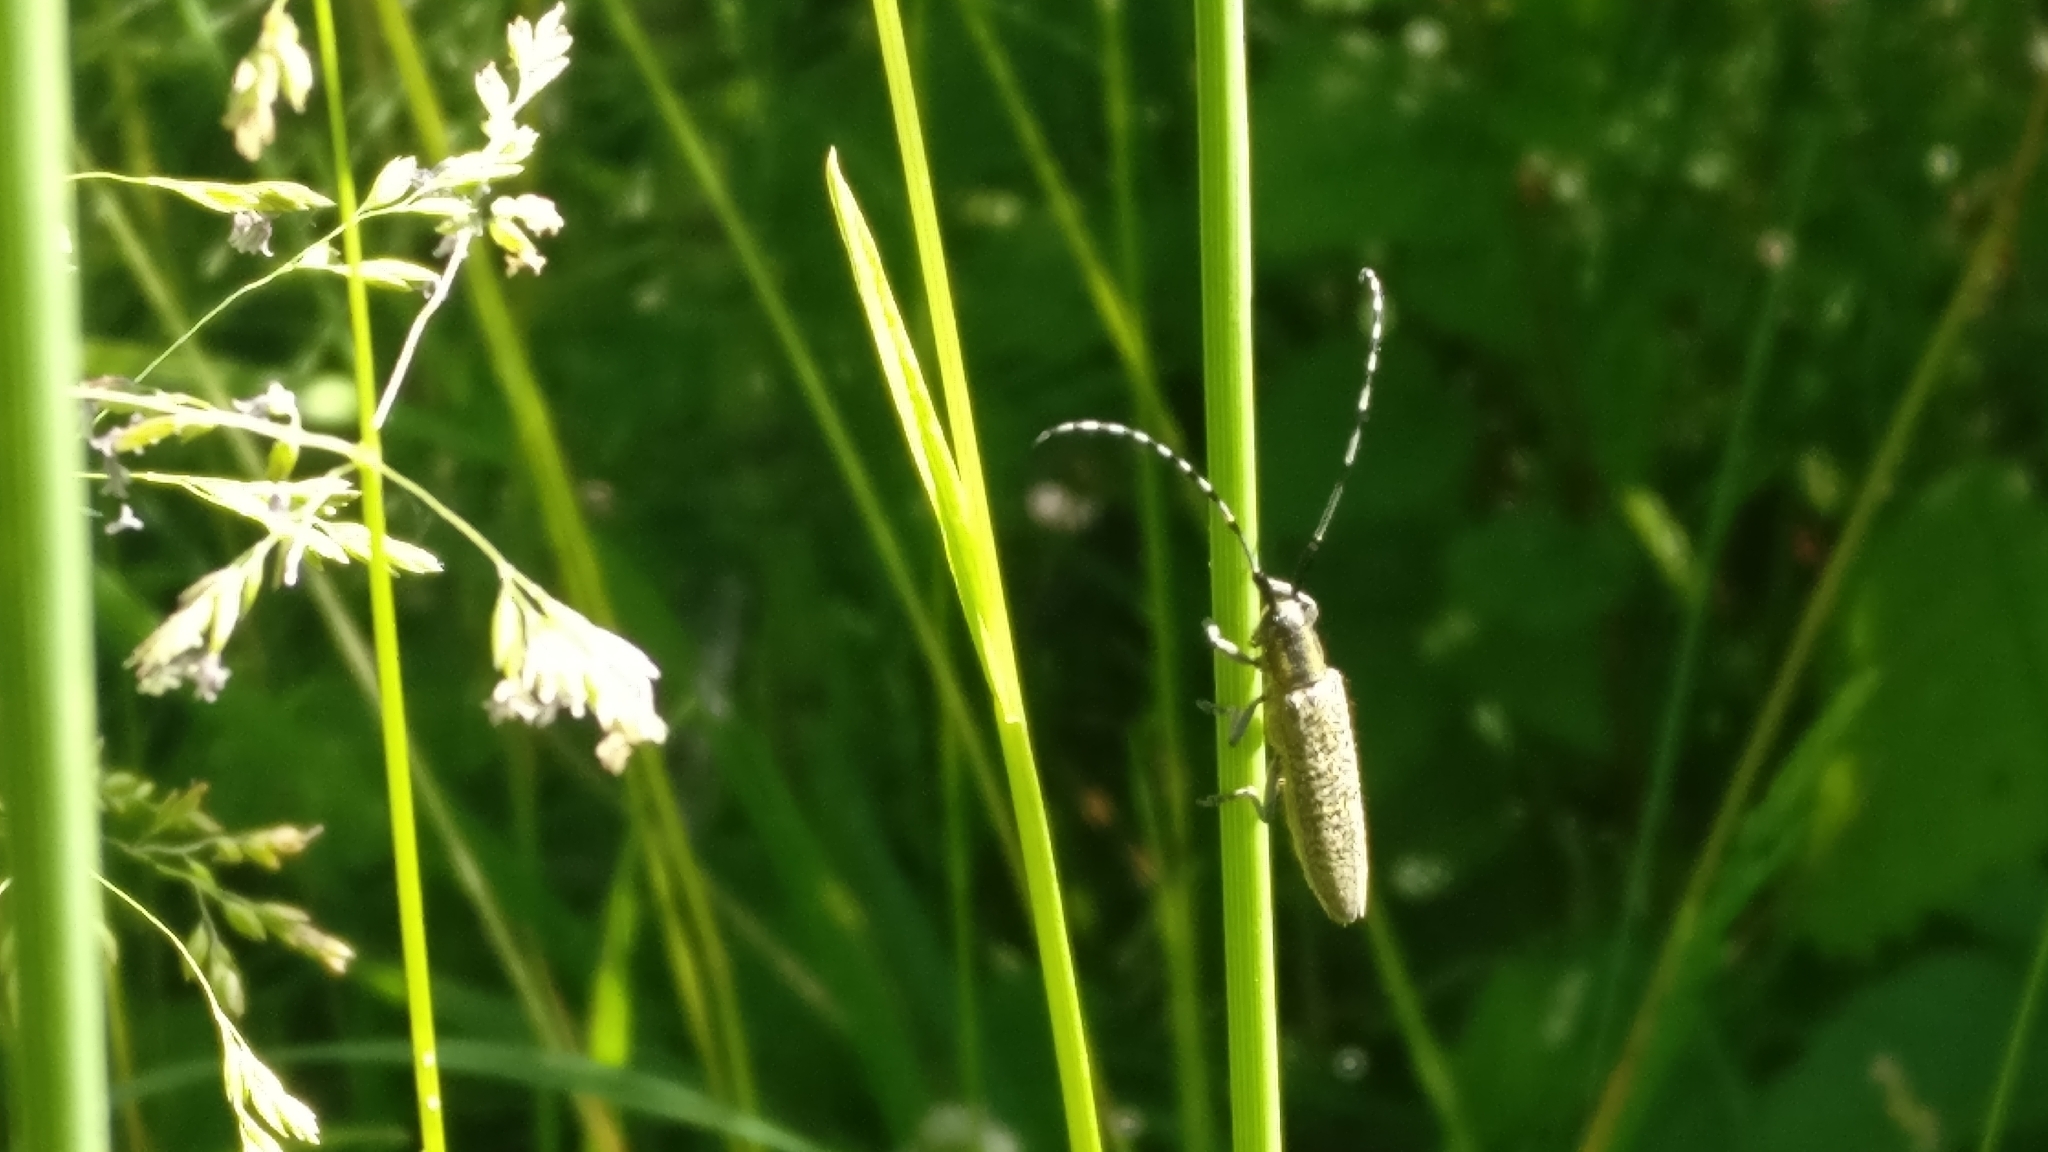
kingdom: Animalia
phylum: Arthropoda
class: Insecta
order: Coleoptera
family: Cerambycidae
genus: Agapanthia
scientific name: Agapanthia villosoviridescens
